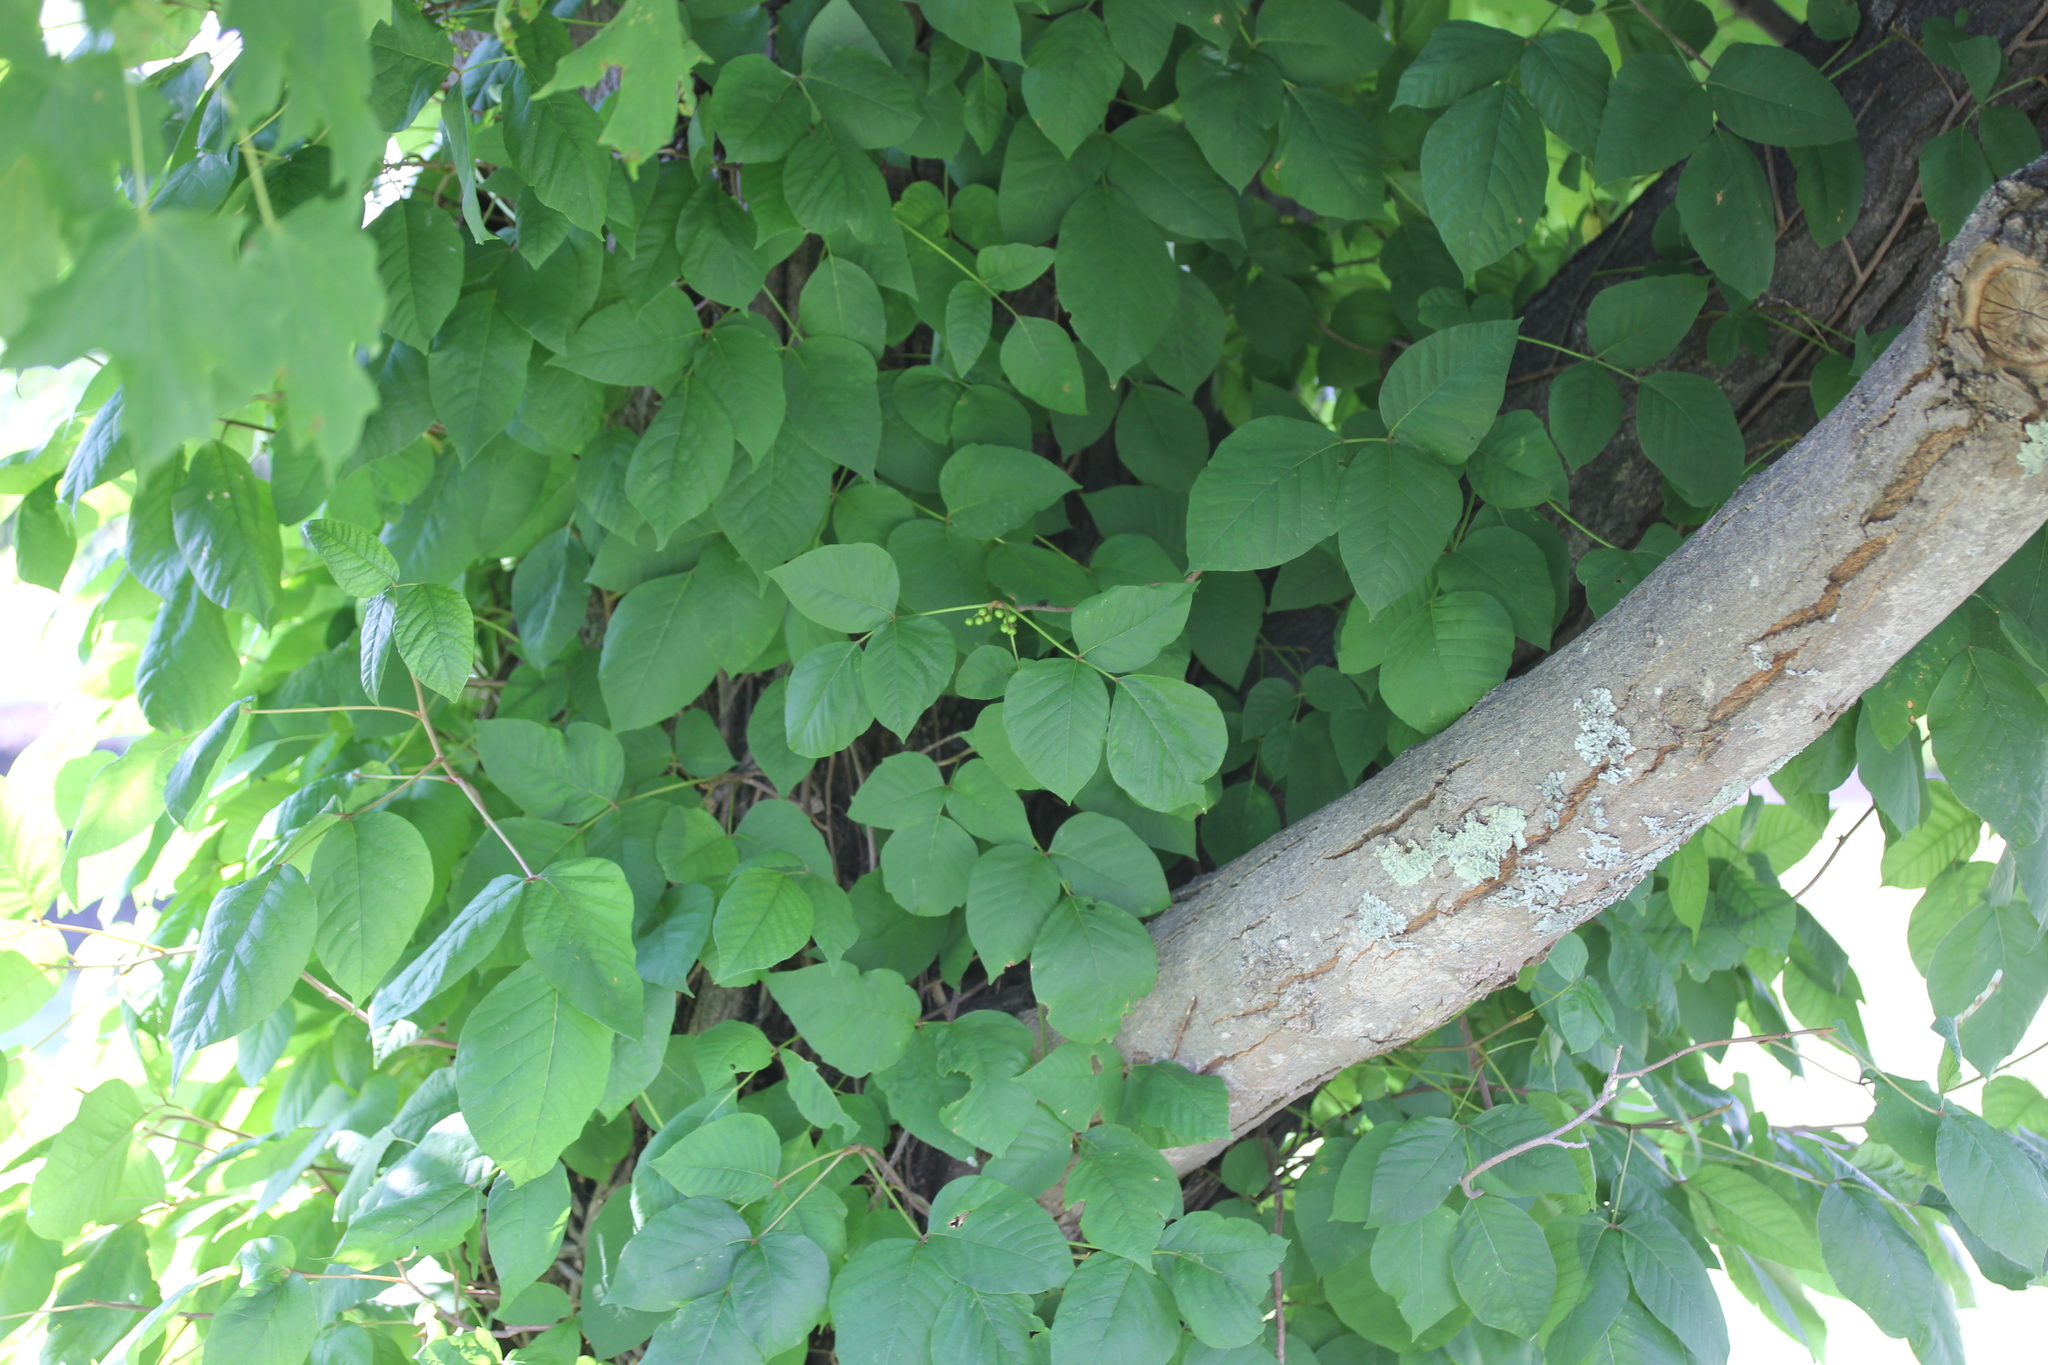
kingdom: Plantae
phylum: Tracheophyta
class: Magnoliopsida
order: Sapindales
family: Anacardiaceae
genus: Toxicodendron
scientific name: Toxicodendron radicans
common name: Poison ivy
